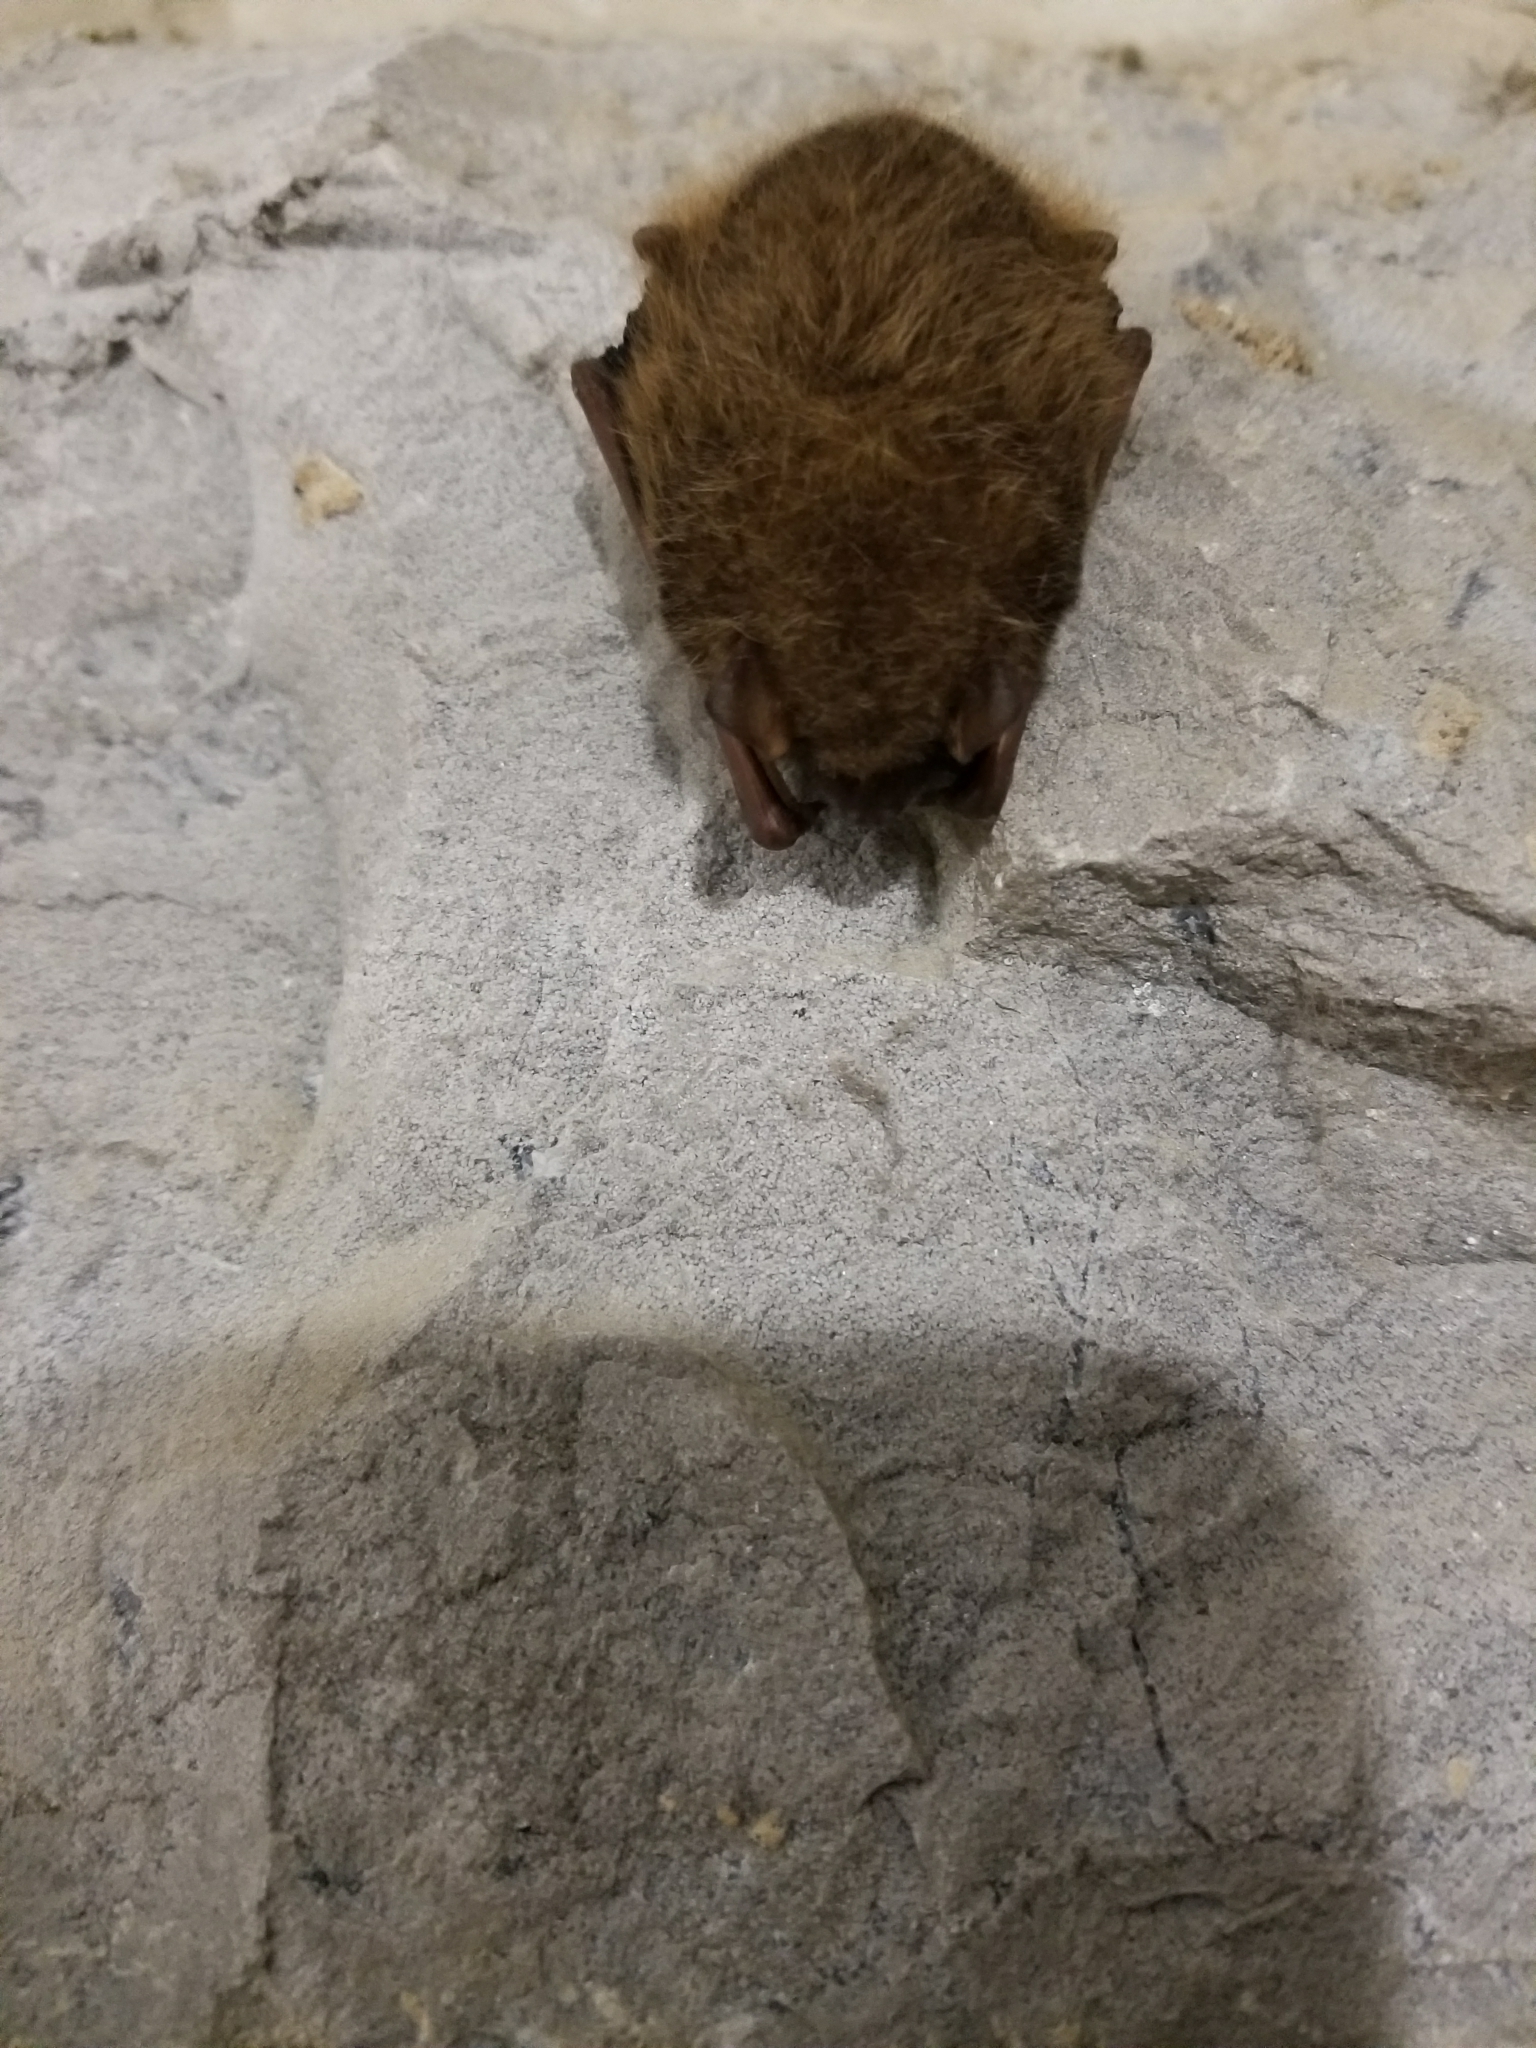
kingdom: Animalia
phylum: Chordata
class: Mammalia
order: Chiroptera
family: Vespertilionidae
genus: Perimyotis
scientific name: Perimyotis subflavus
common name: Eastern pipistrelle
